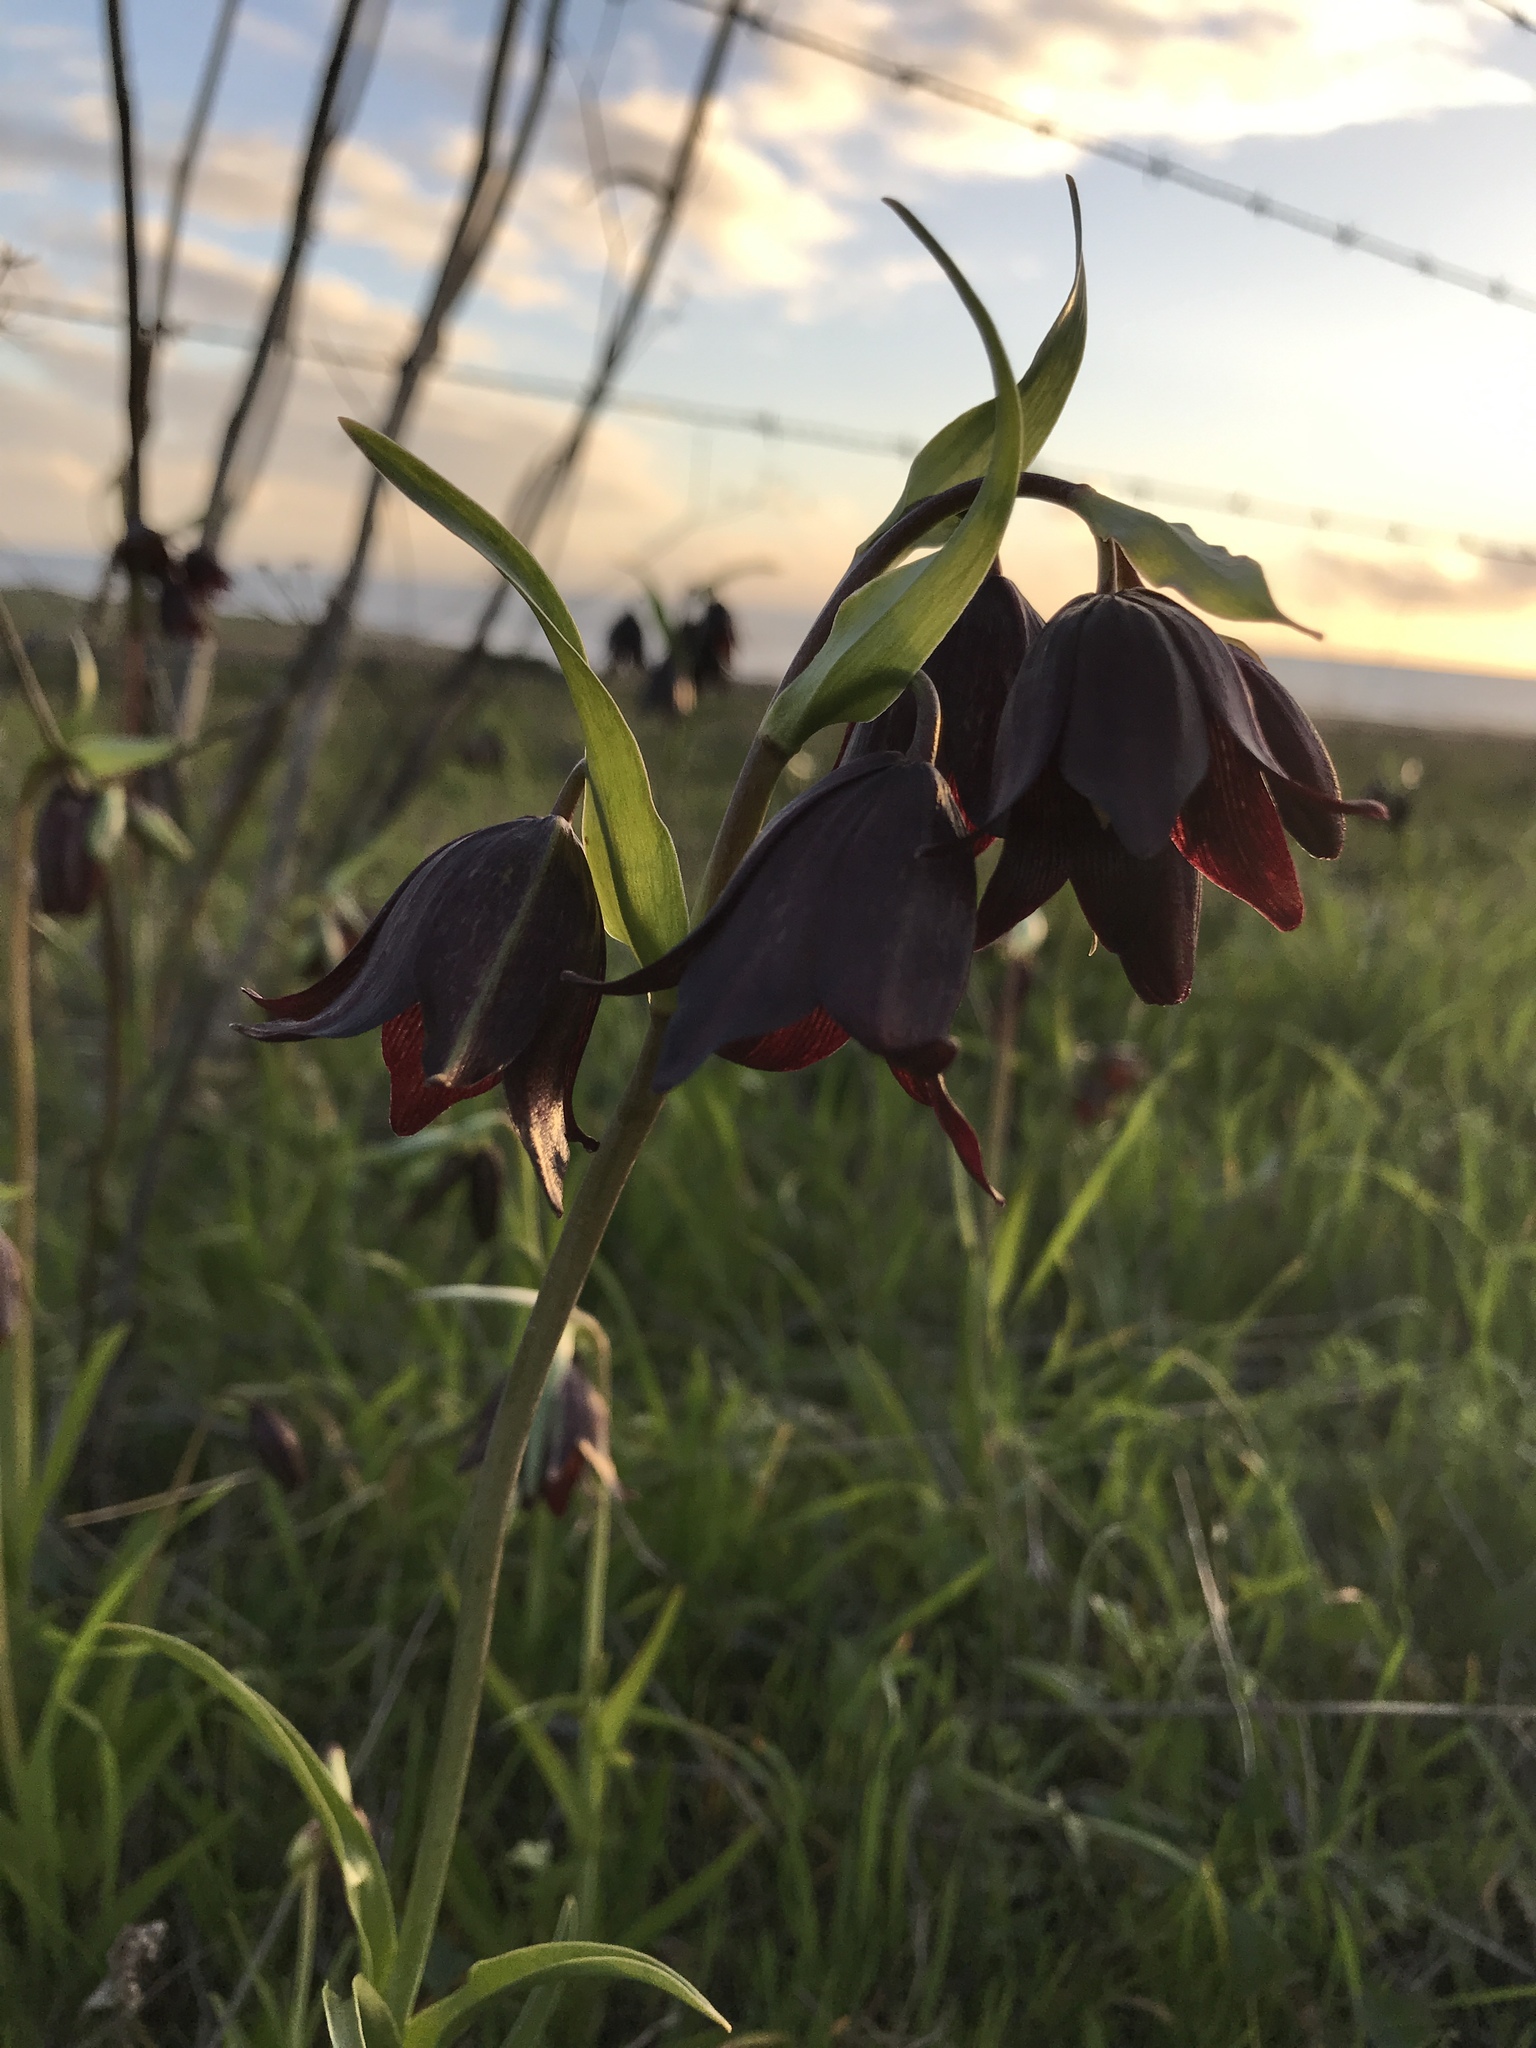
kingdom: Plantae
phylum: Tracheophyta
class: Liliopsida
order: Liliales
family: Liliaceae
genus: Fritillaria
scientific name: Fritillaria biflora
